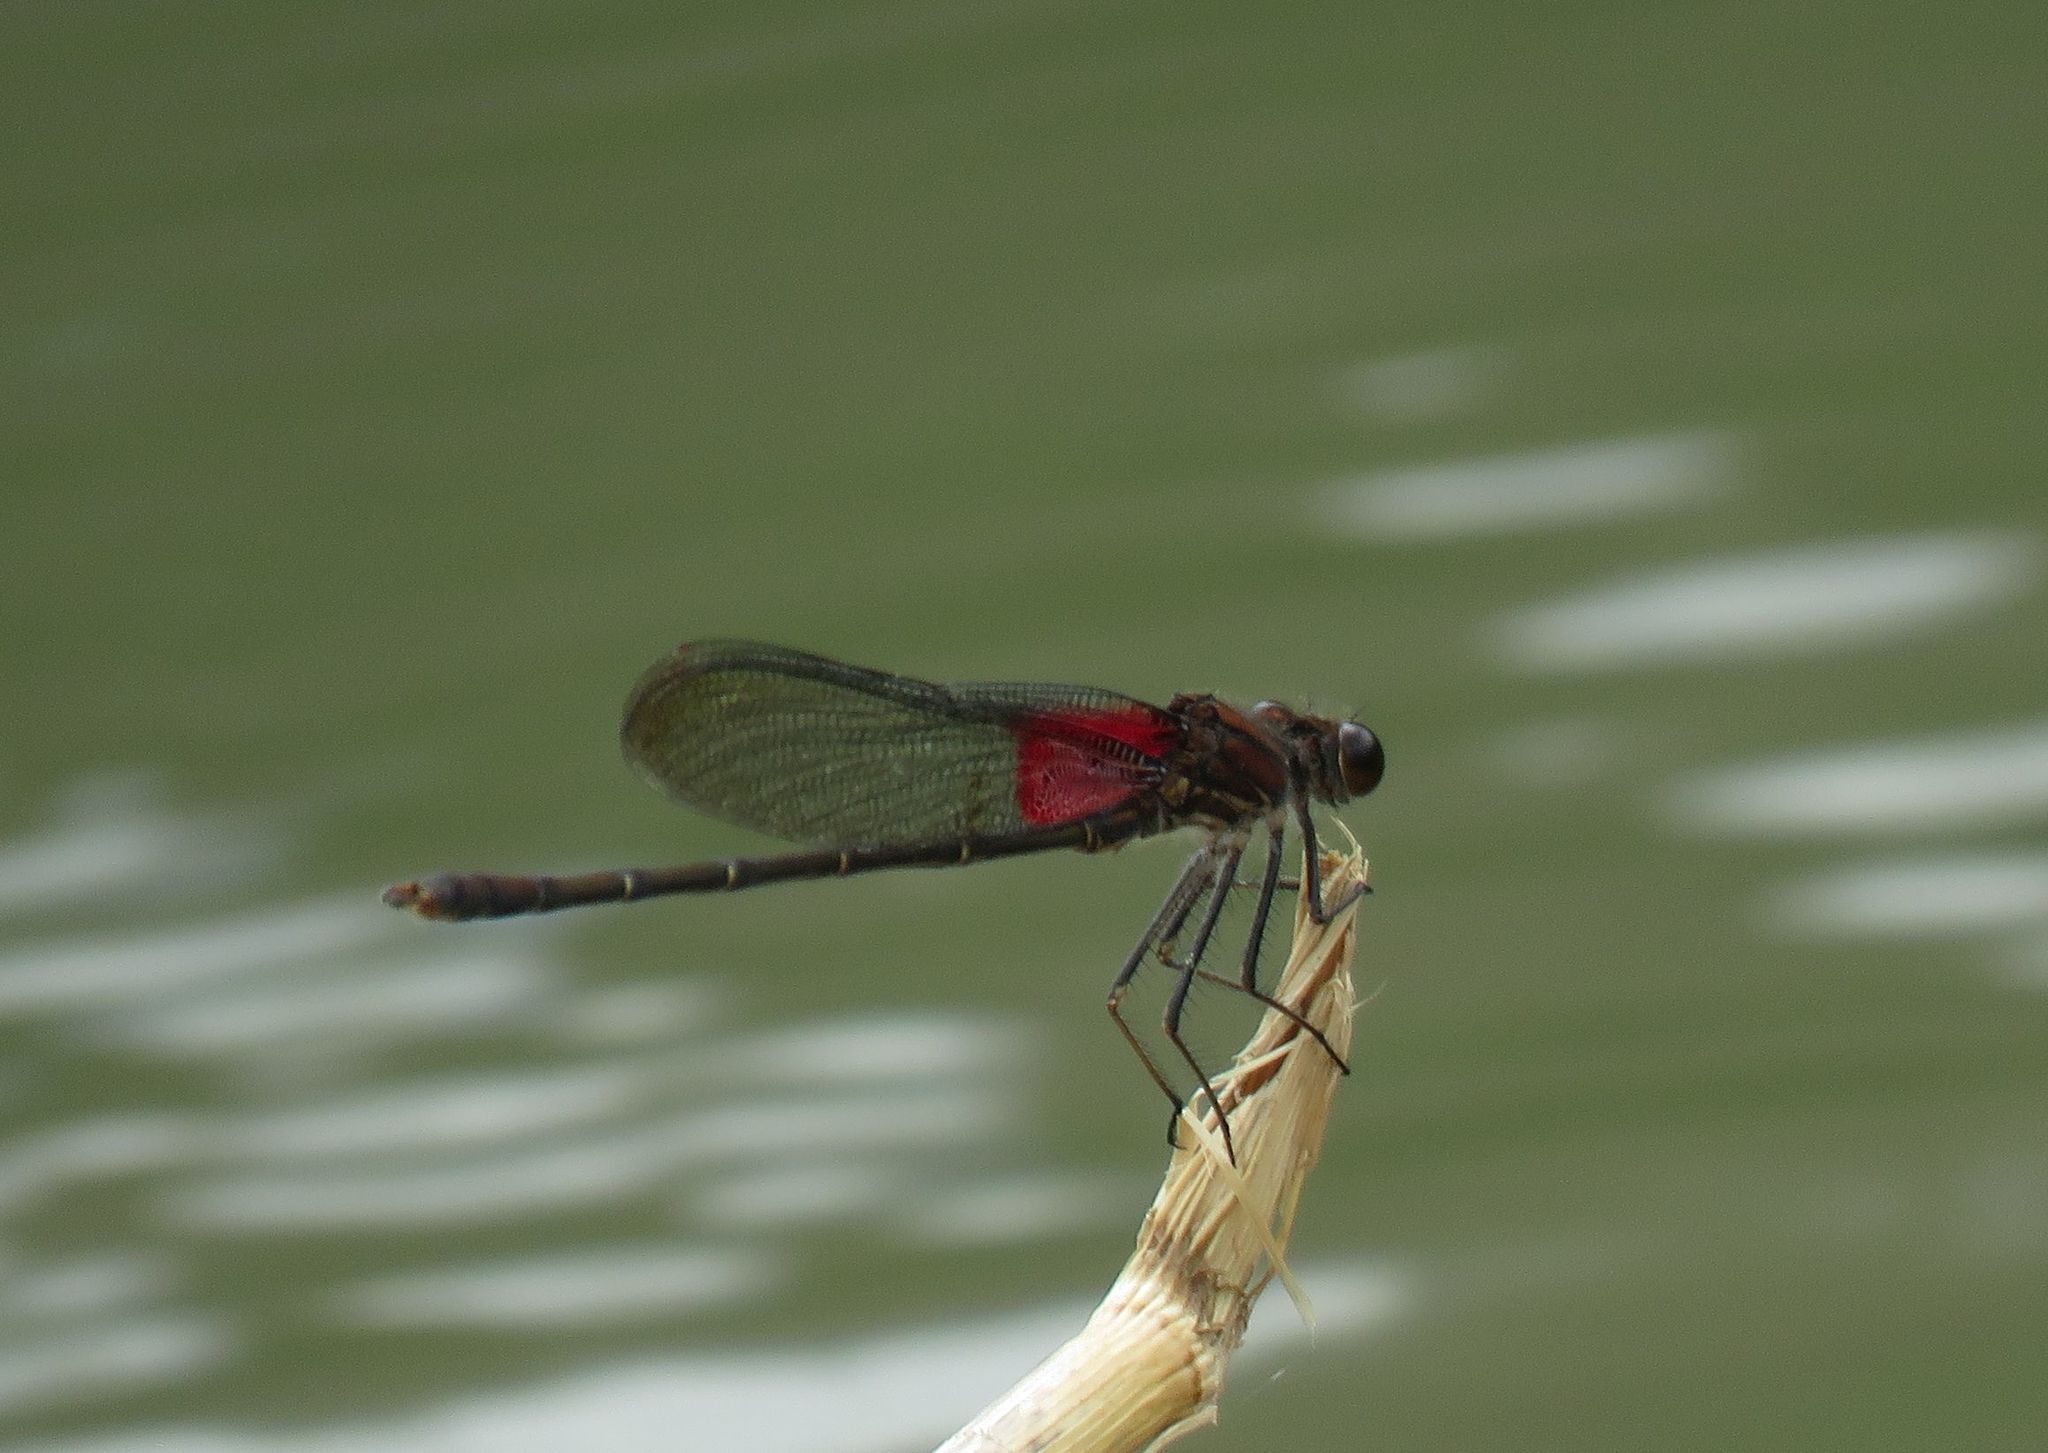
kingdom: Animalia
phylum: Arthropoda
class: Insecta
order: Odonata
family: Calopterygidae
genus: Hetaerina
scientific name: Hetaerina americana
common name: American rubyspot
